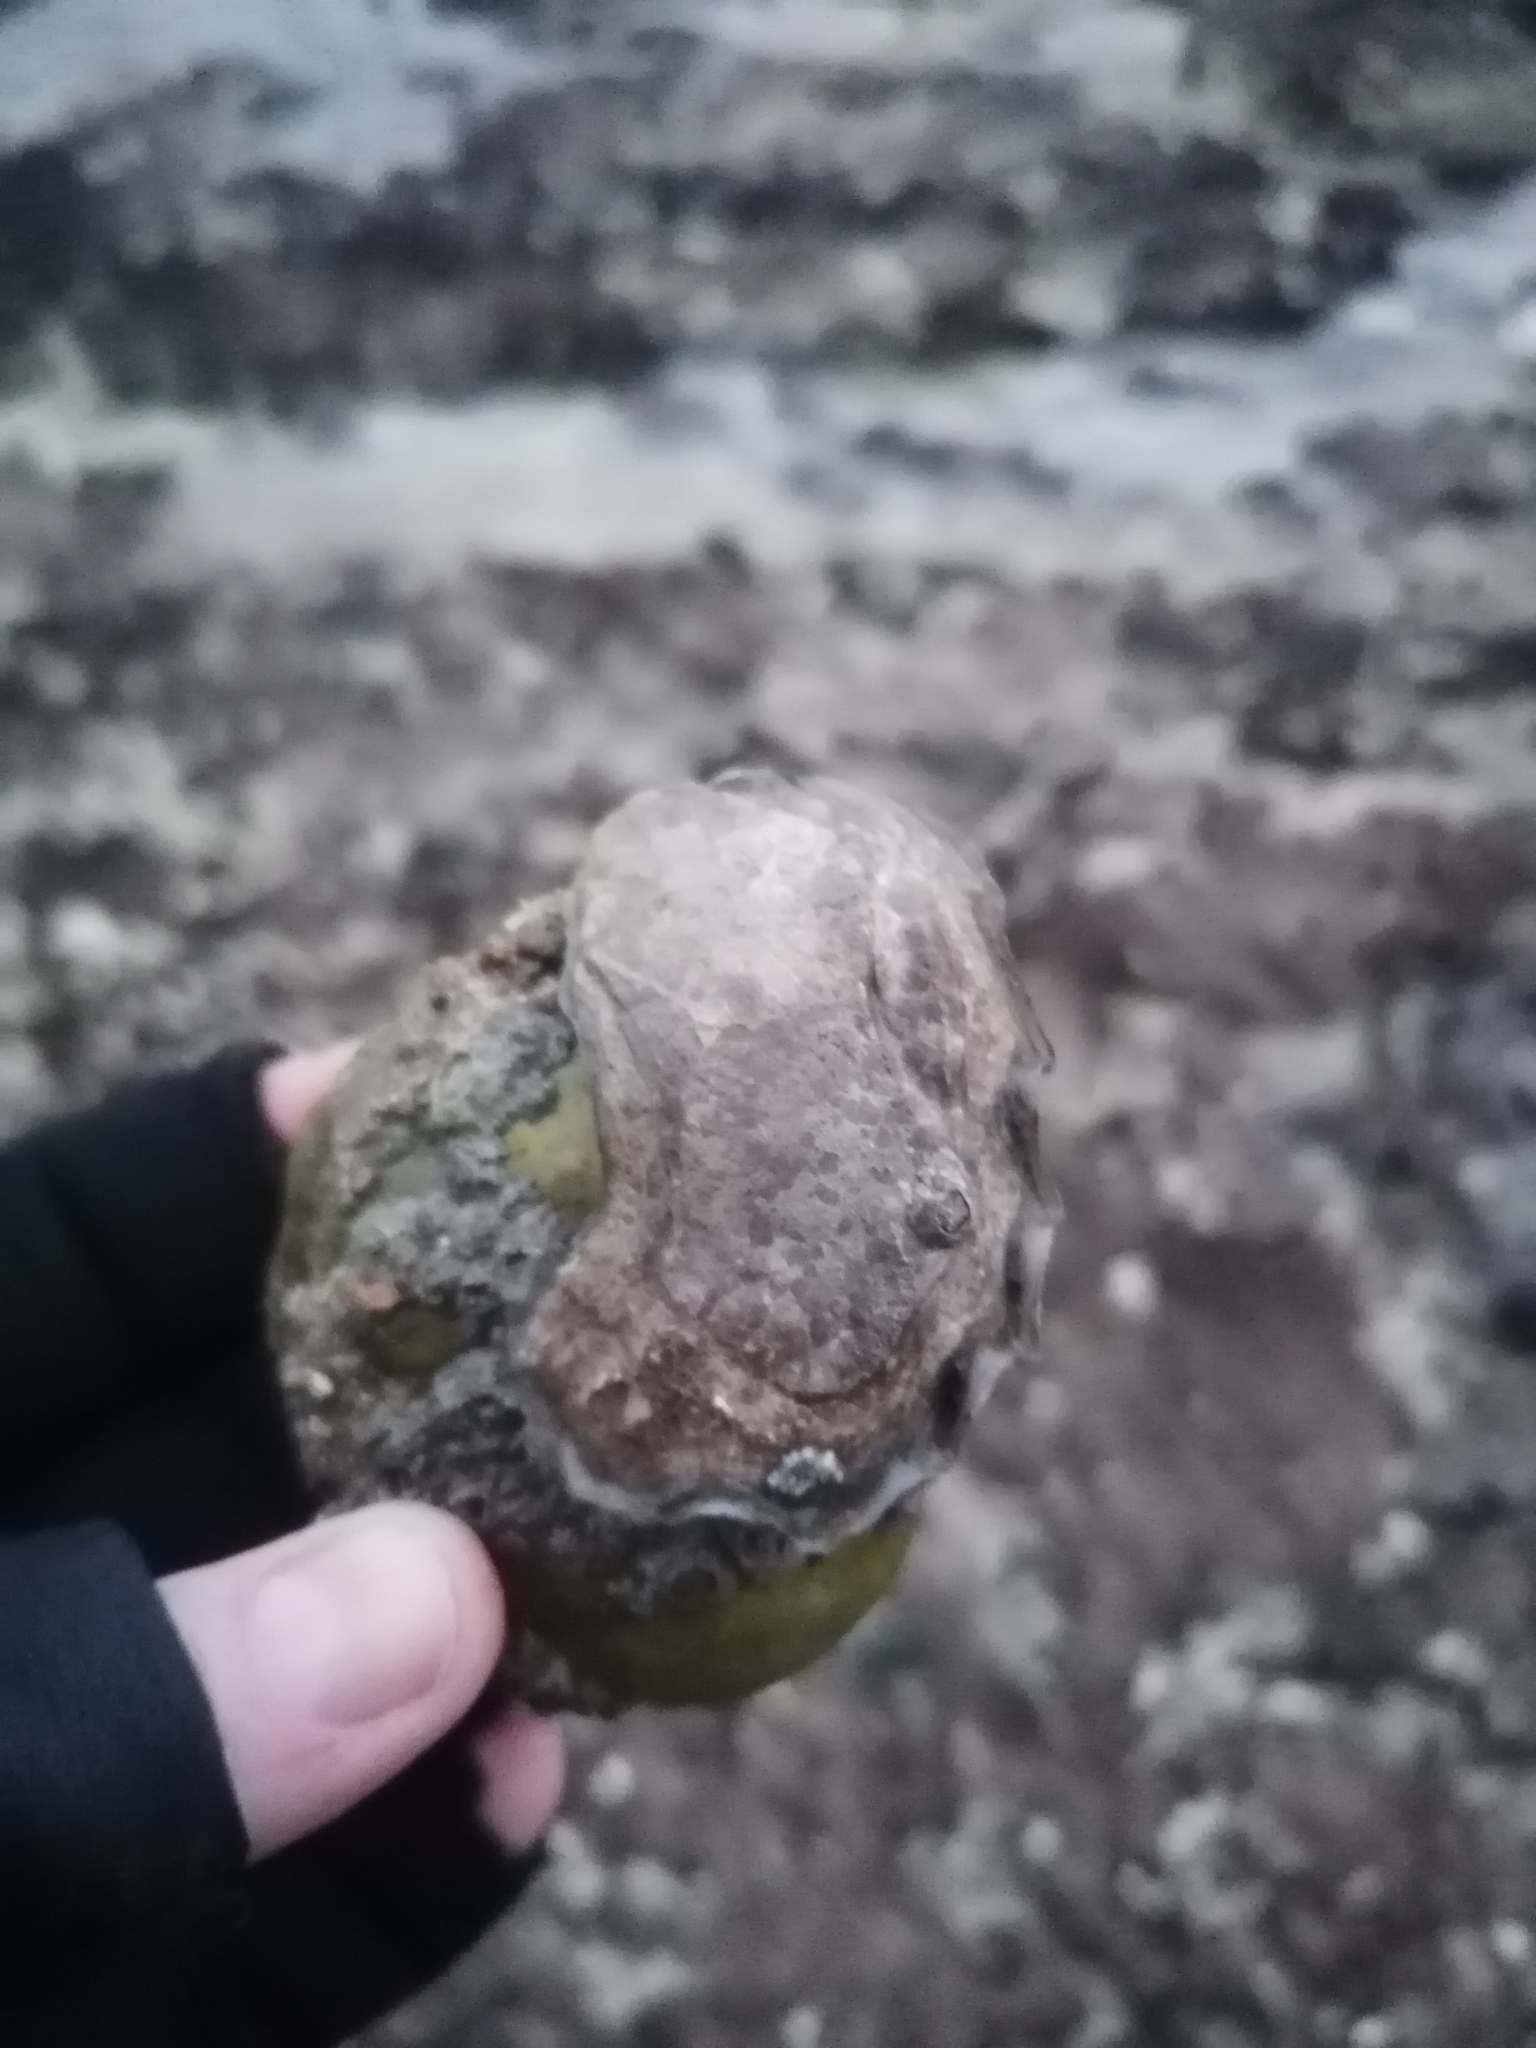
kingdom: Animalia
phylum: Mollusca
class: Bivalvia
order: Ostreida
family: Ostreidae
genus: Ostrea
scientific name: Ostrea edulis
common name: Flat oyster
